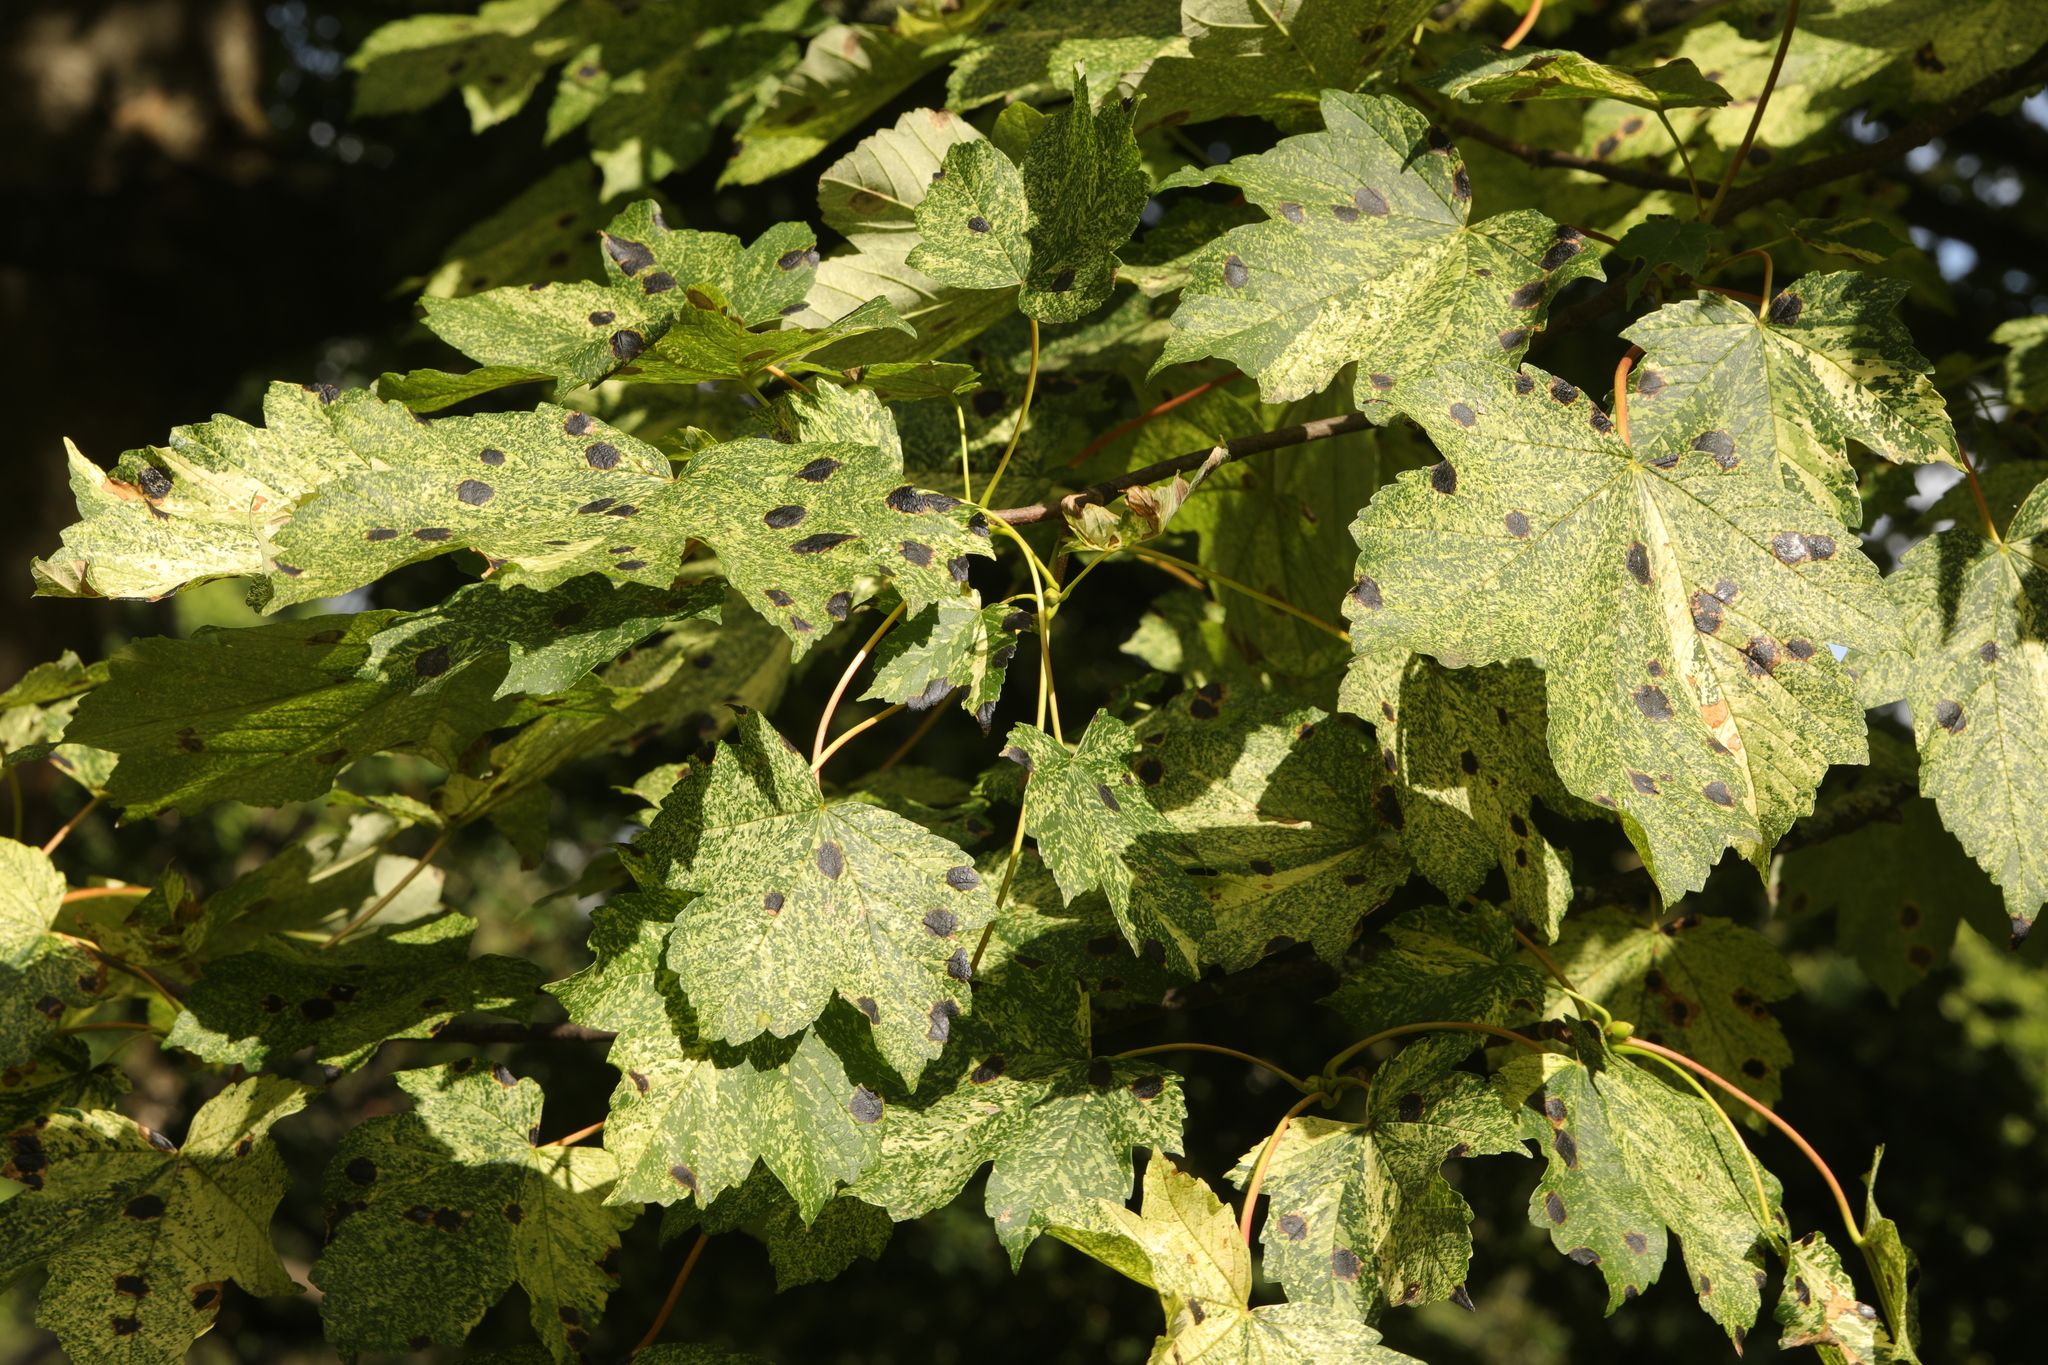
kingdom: Fungi
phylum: Ascomycota
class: Leotiomycetes
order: Rhytismatales
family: Rhytismataceae
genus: Rhytisma
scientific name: Rhytisma acerinum
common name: European tar spot
